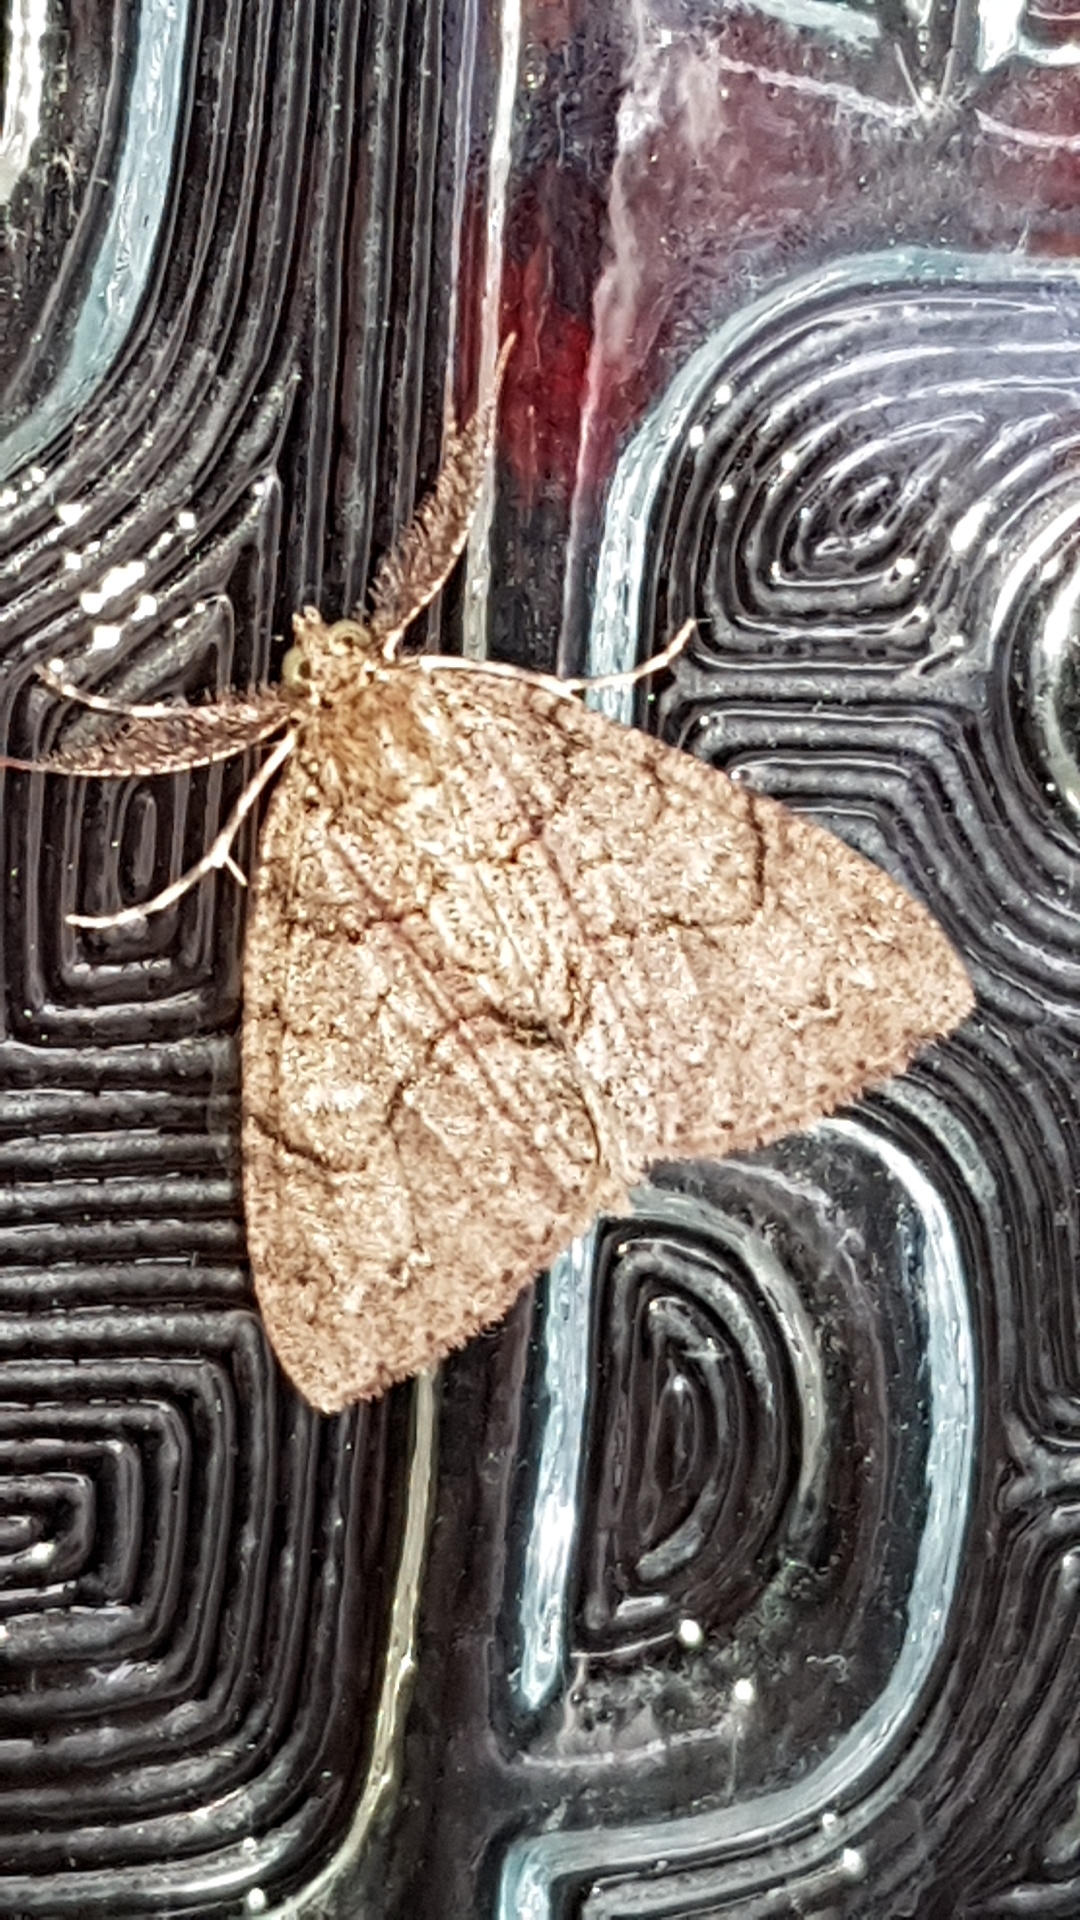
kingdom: Animalia
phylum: Arthropoda
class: Insecta
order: Lepidoptera
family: Geometridae
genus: Pseudocoremia
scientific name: Pseudocoremia suavis
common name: Common forest looper
